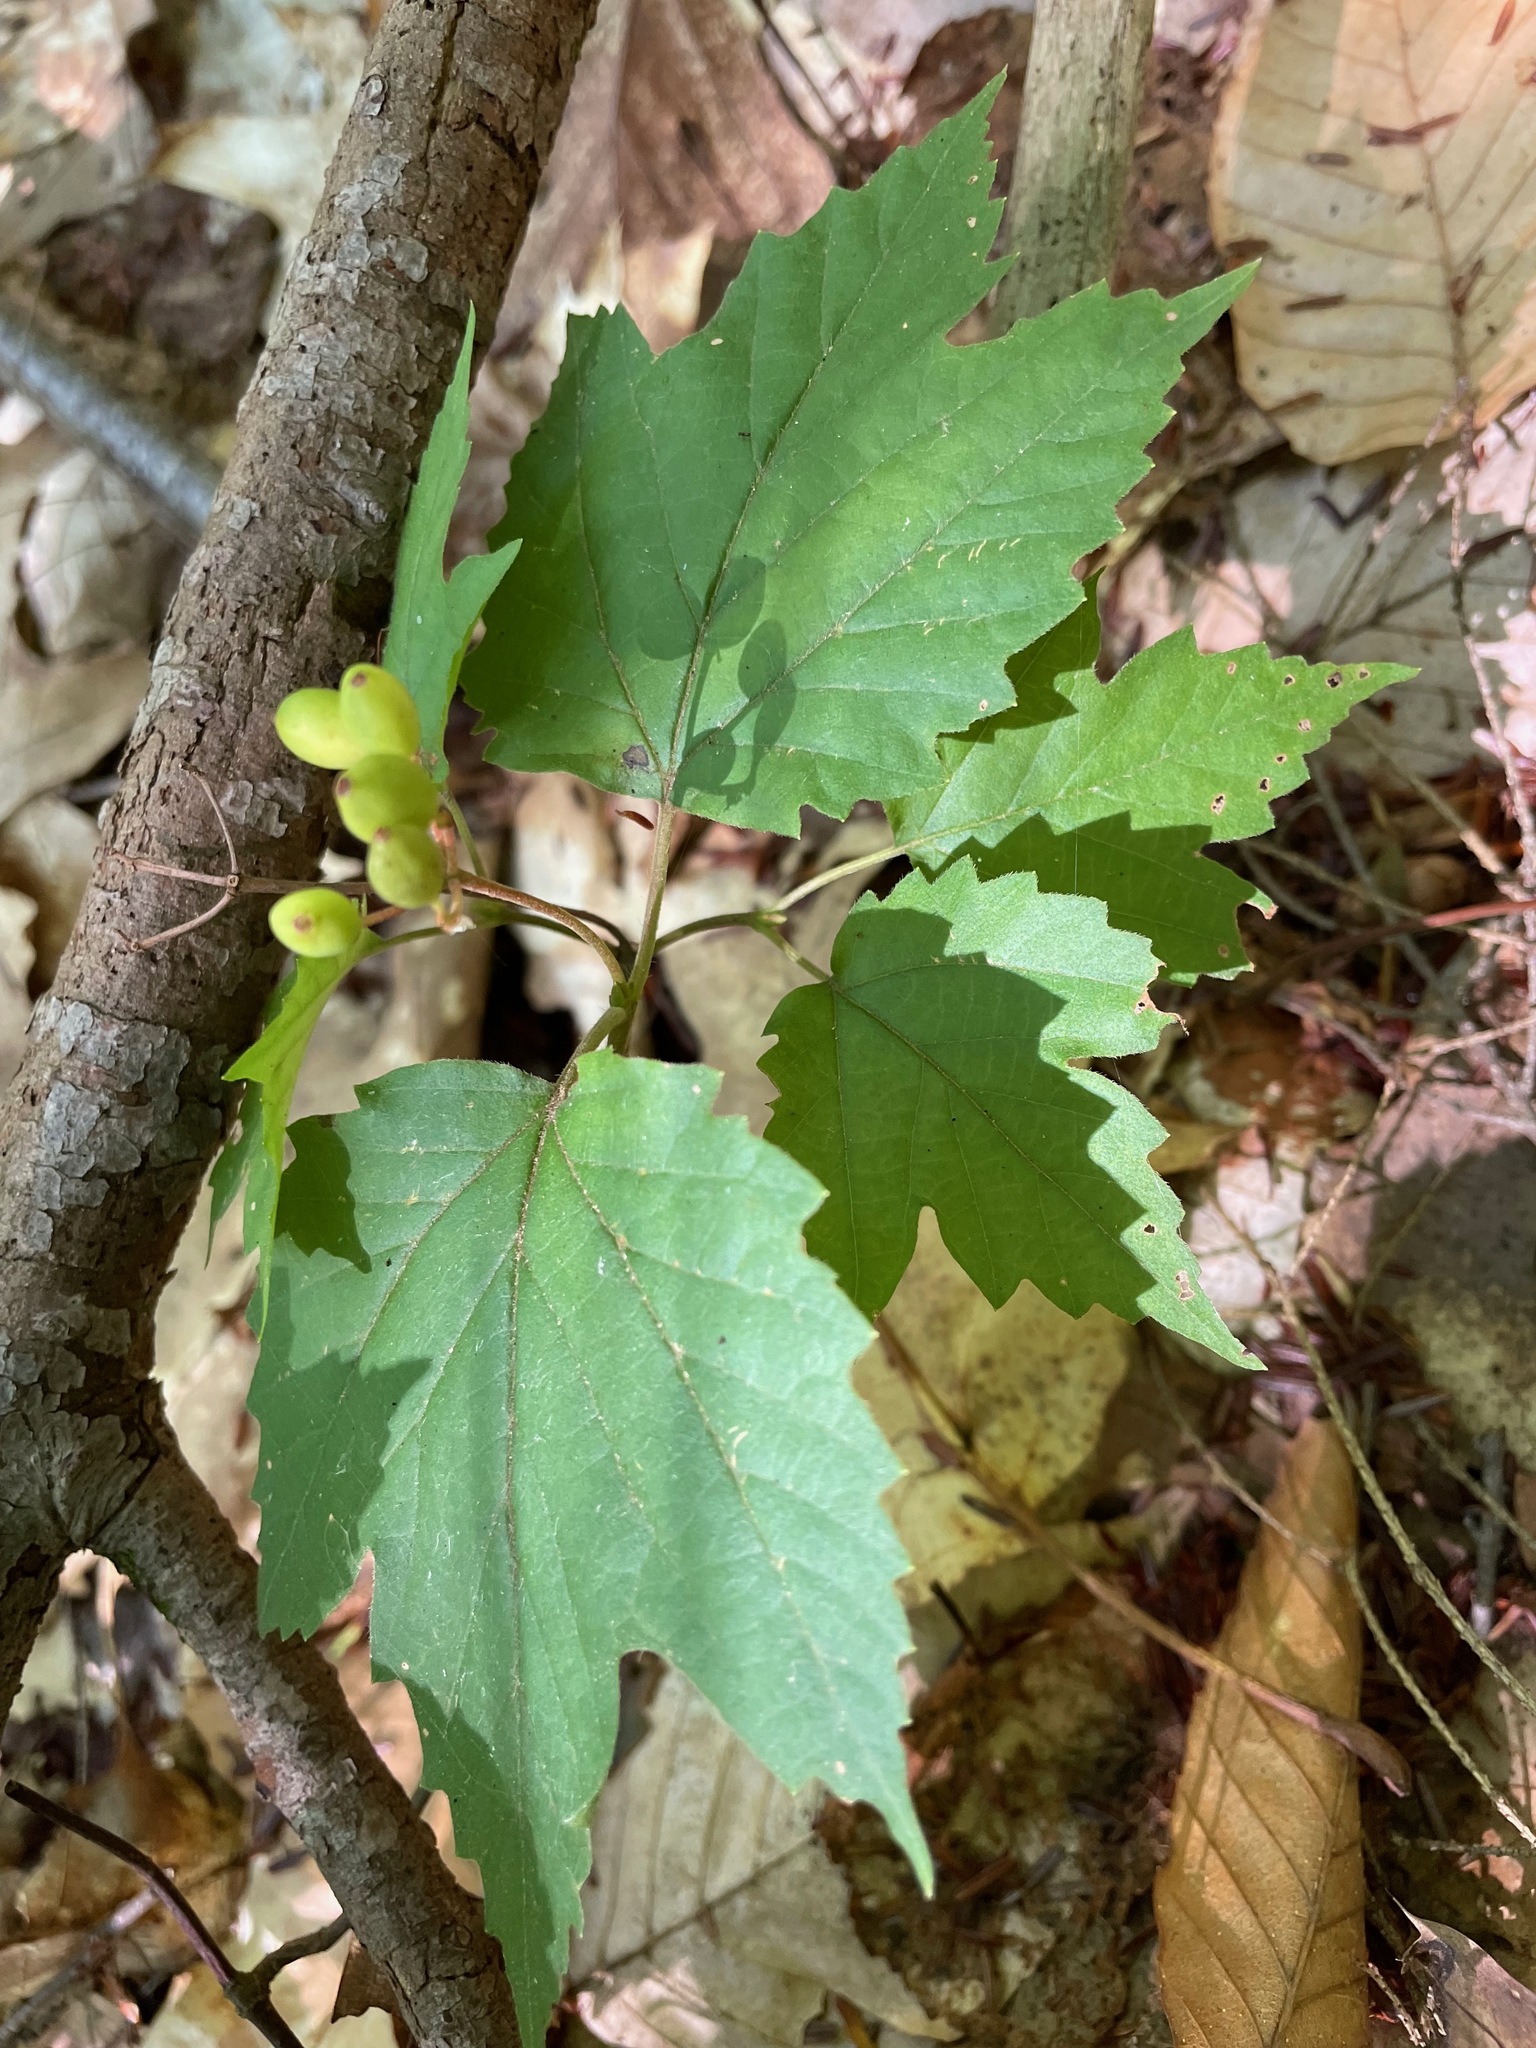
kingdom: Plantae
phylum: Tracheophyta
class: Magnoliopsida
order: Dipsacales
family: Viburnaceae
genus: Viburnum
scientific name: Viburnum acerifolium
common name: Dockmackie
